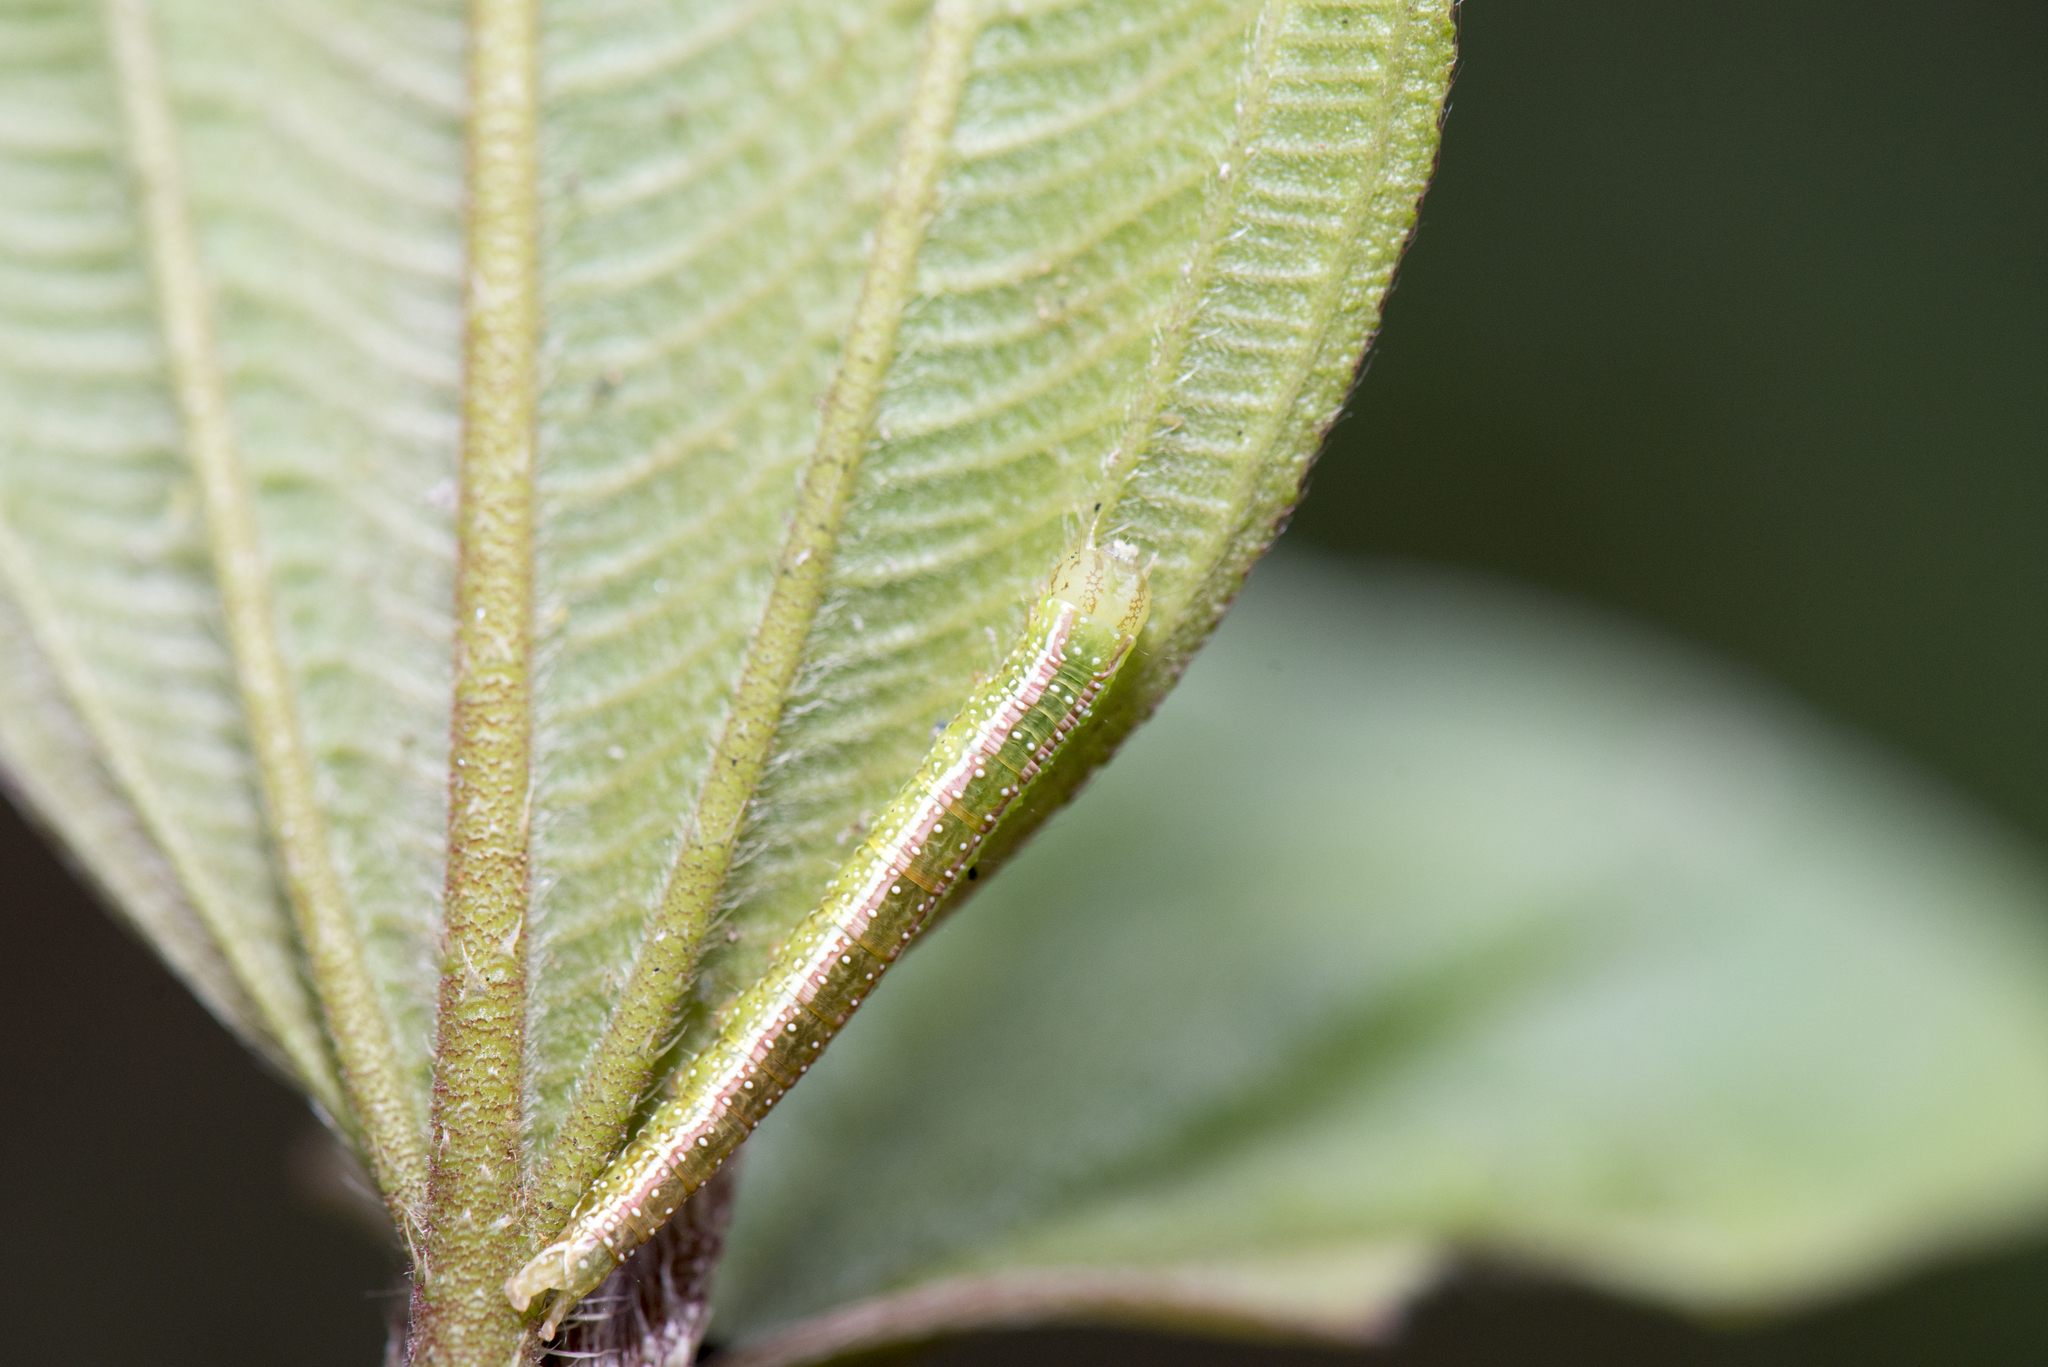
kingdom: Animalia
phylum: Arthropoda
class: Insecta
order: Lepidoptera
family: Nolidae
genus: Risoba
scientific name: Risoba basalis
